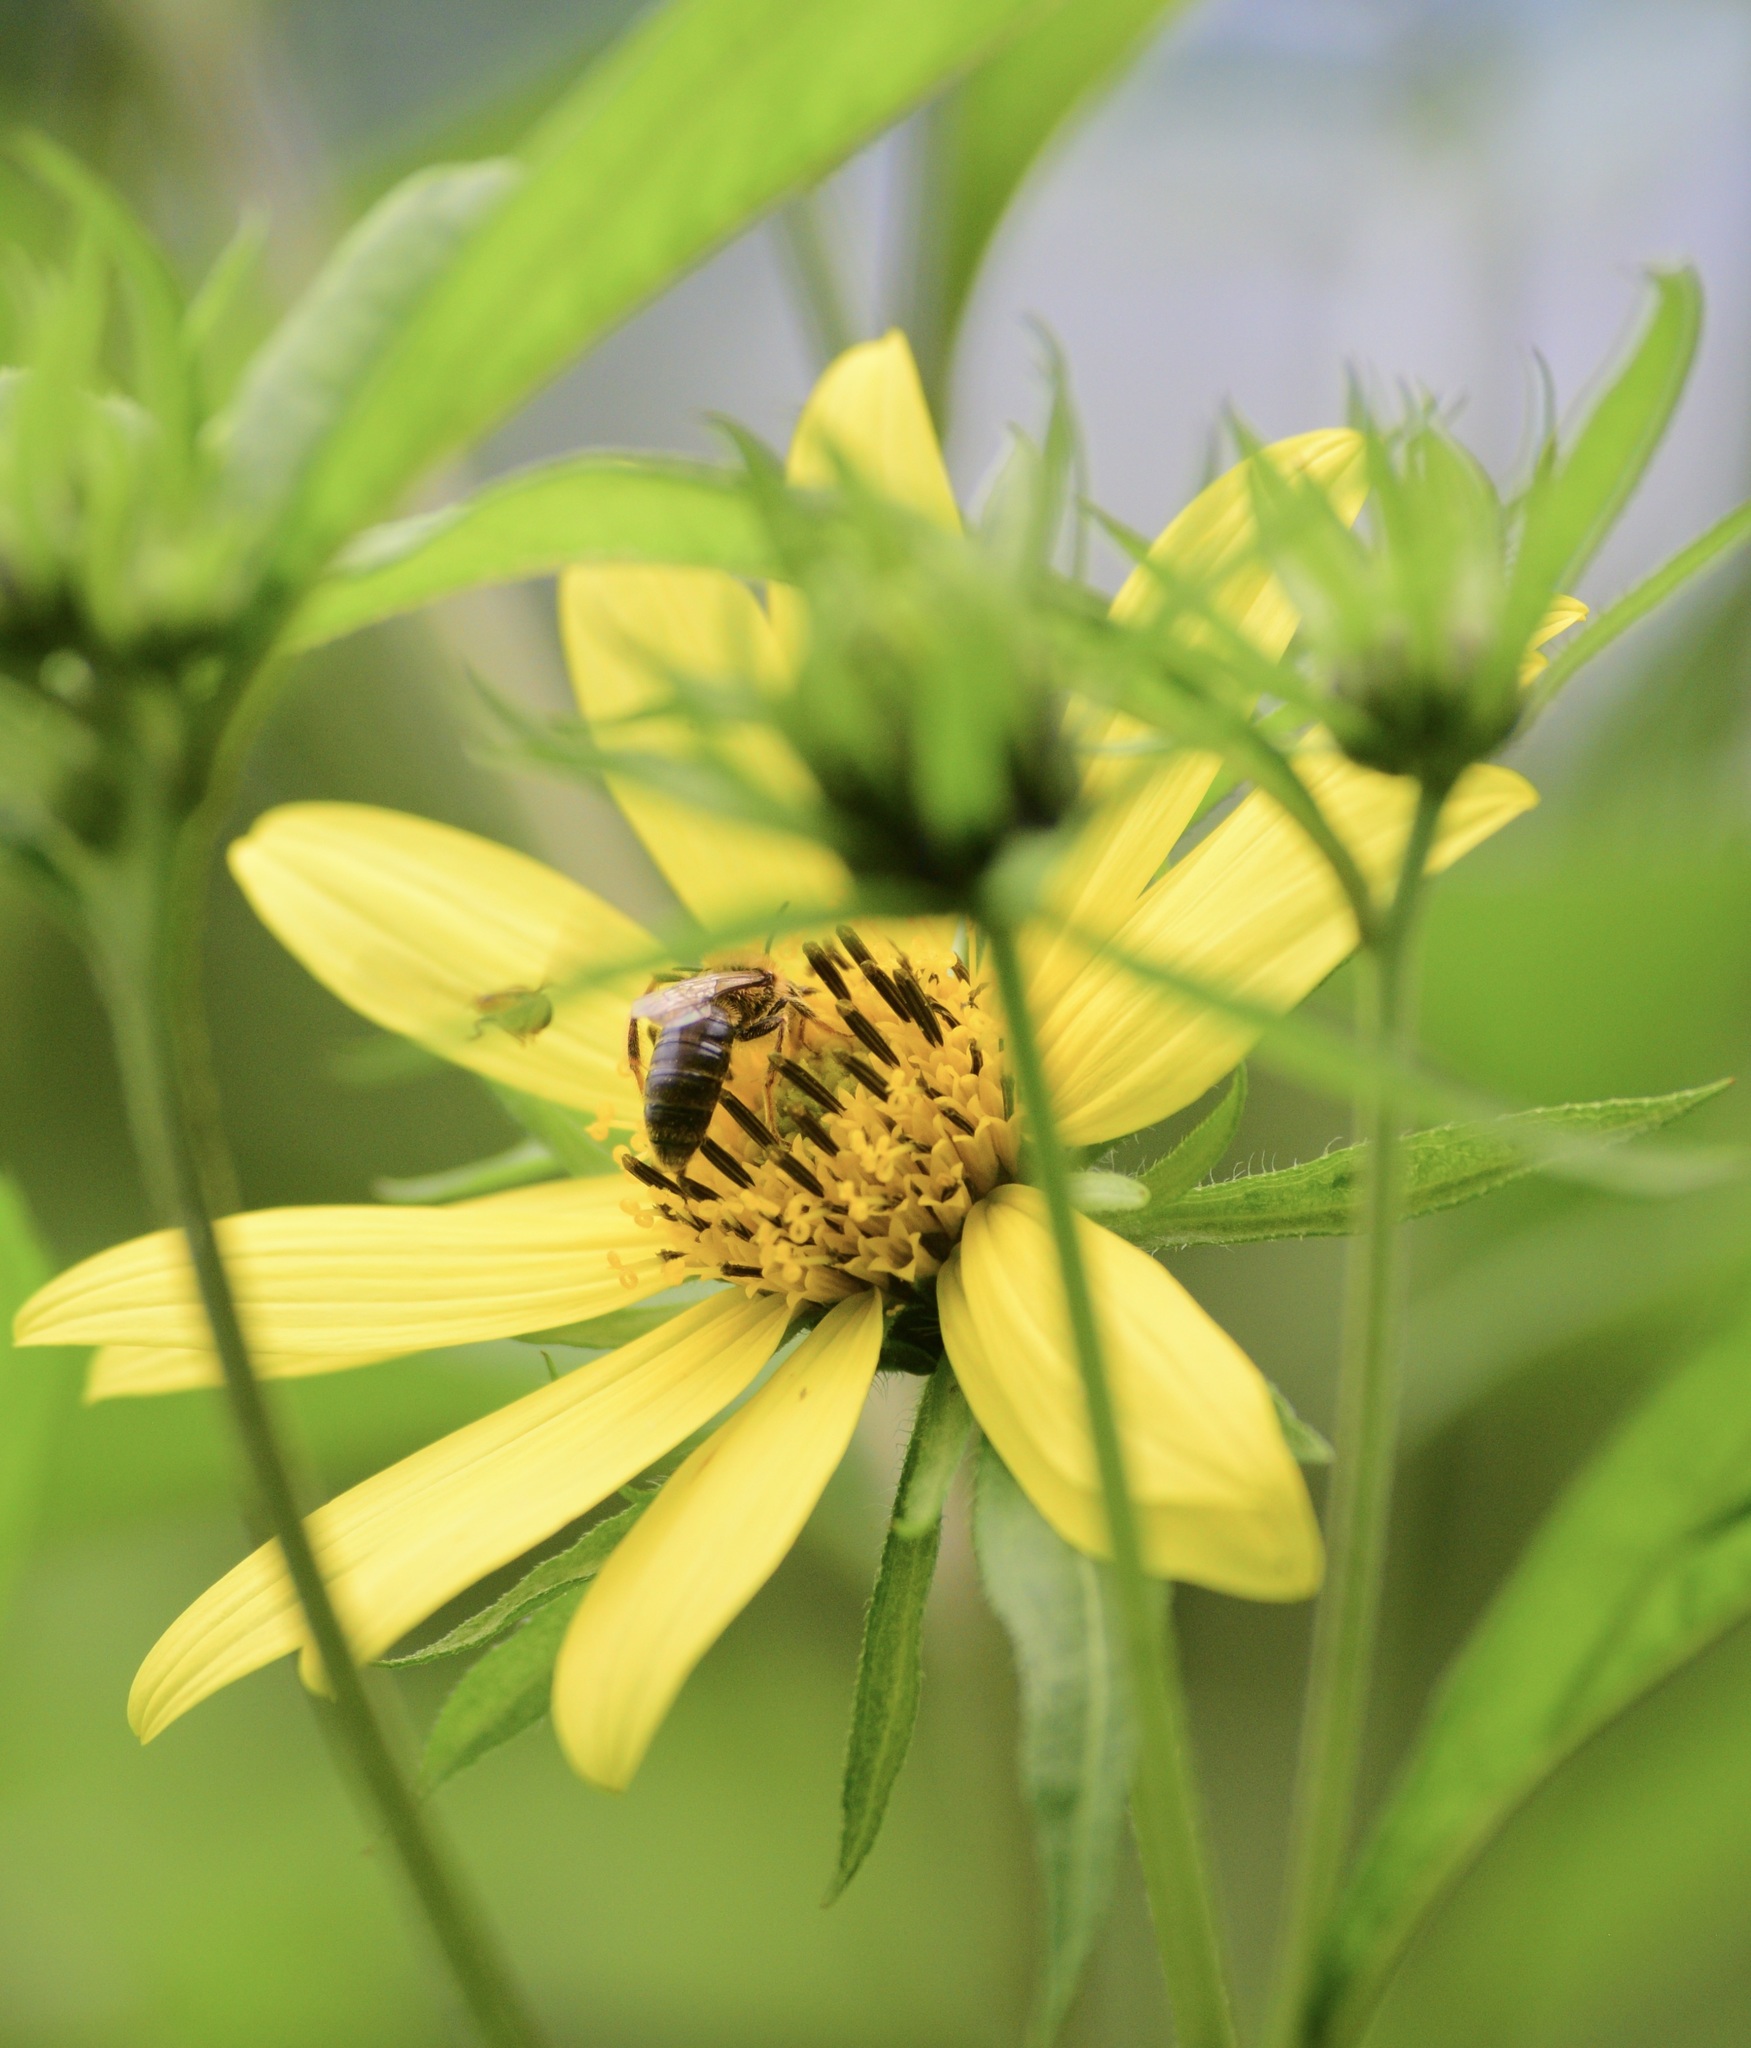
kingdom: Animalia
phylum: Arthropoda
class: Insecta
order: Hymenoptera
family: Andrenidae
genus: Andrena
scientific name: Andrena helianthi
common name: Sunflower mining bee
